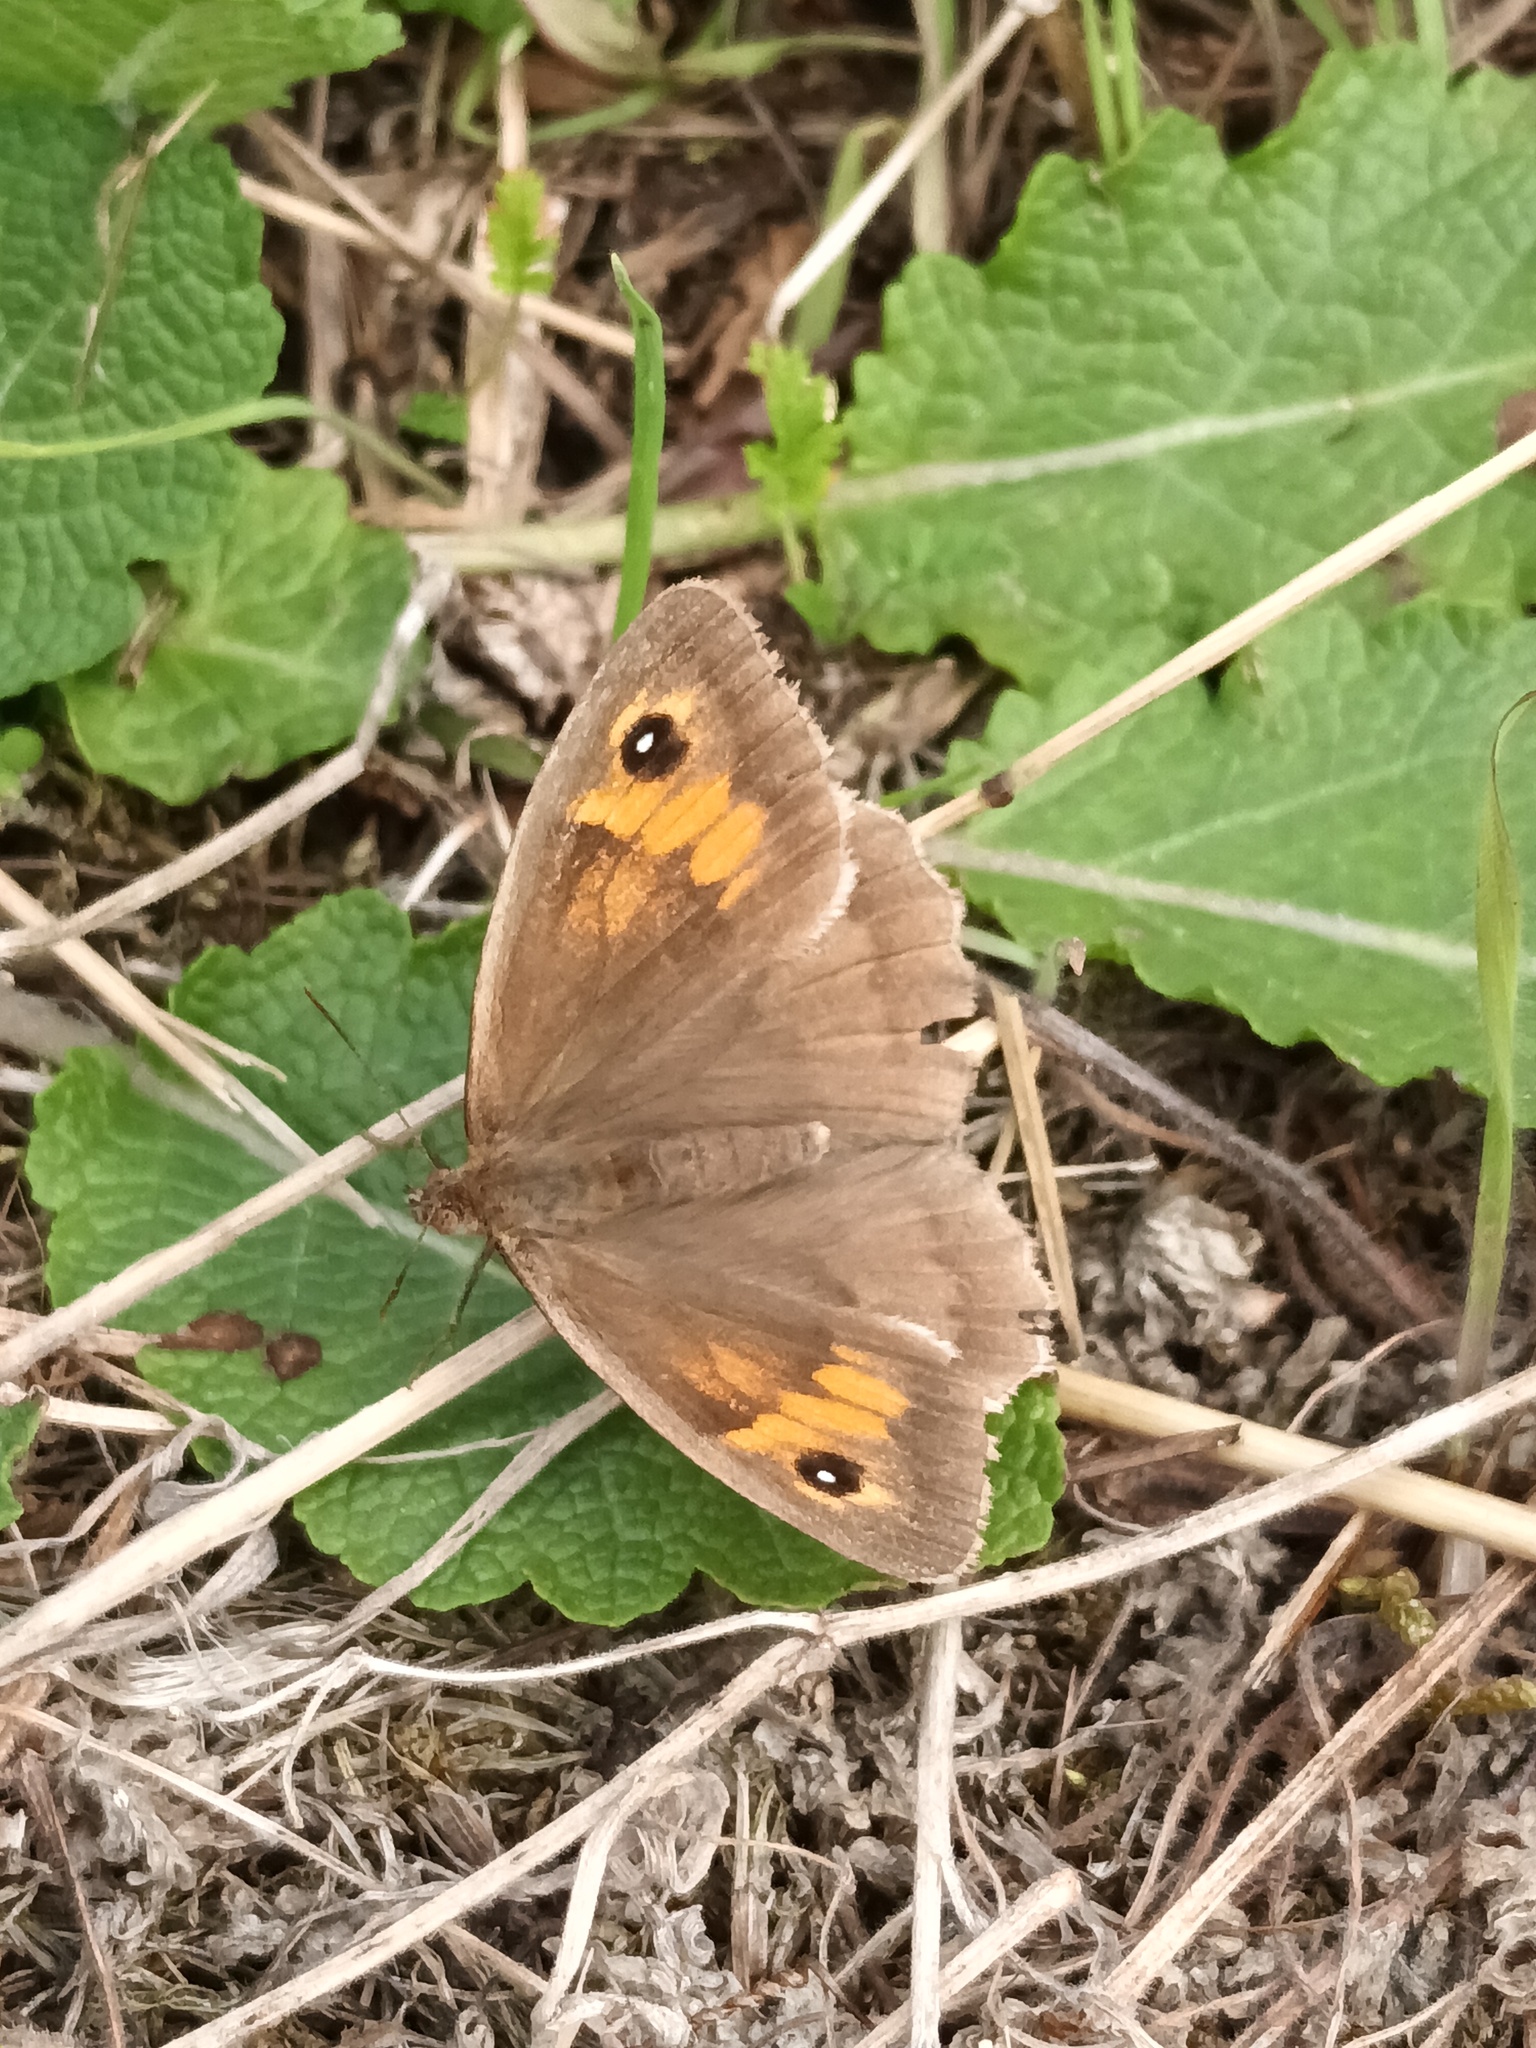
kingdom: Animalia
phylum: Arthropoda
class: Insecta
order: Lepidoptera
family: Nymphalidae
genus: Maniola
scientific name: Maniola jurtina
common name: Meadow brown
